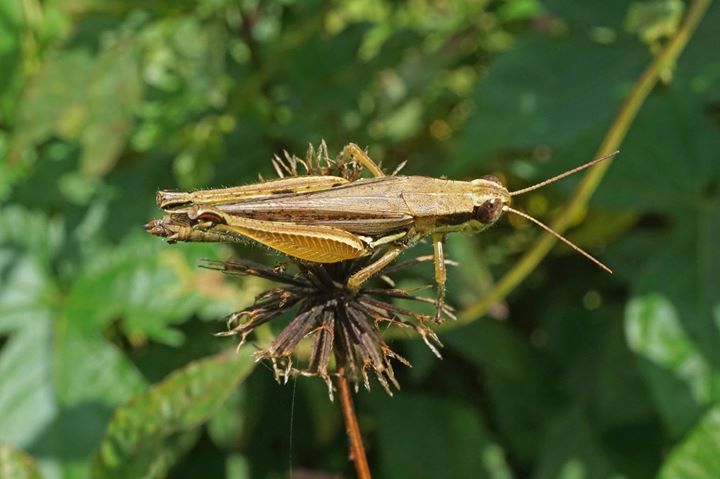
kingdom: Animalia
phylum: Arthropoda
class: Insecta
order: Orthoptera
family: Acrididae
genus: Paroxya
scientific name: Paroxya atlantica
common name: Atlantic grasshopper
